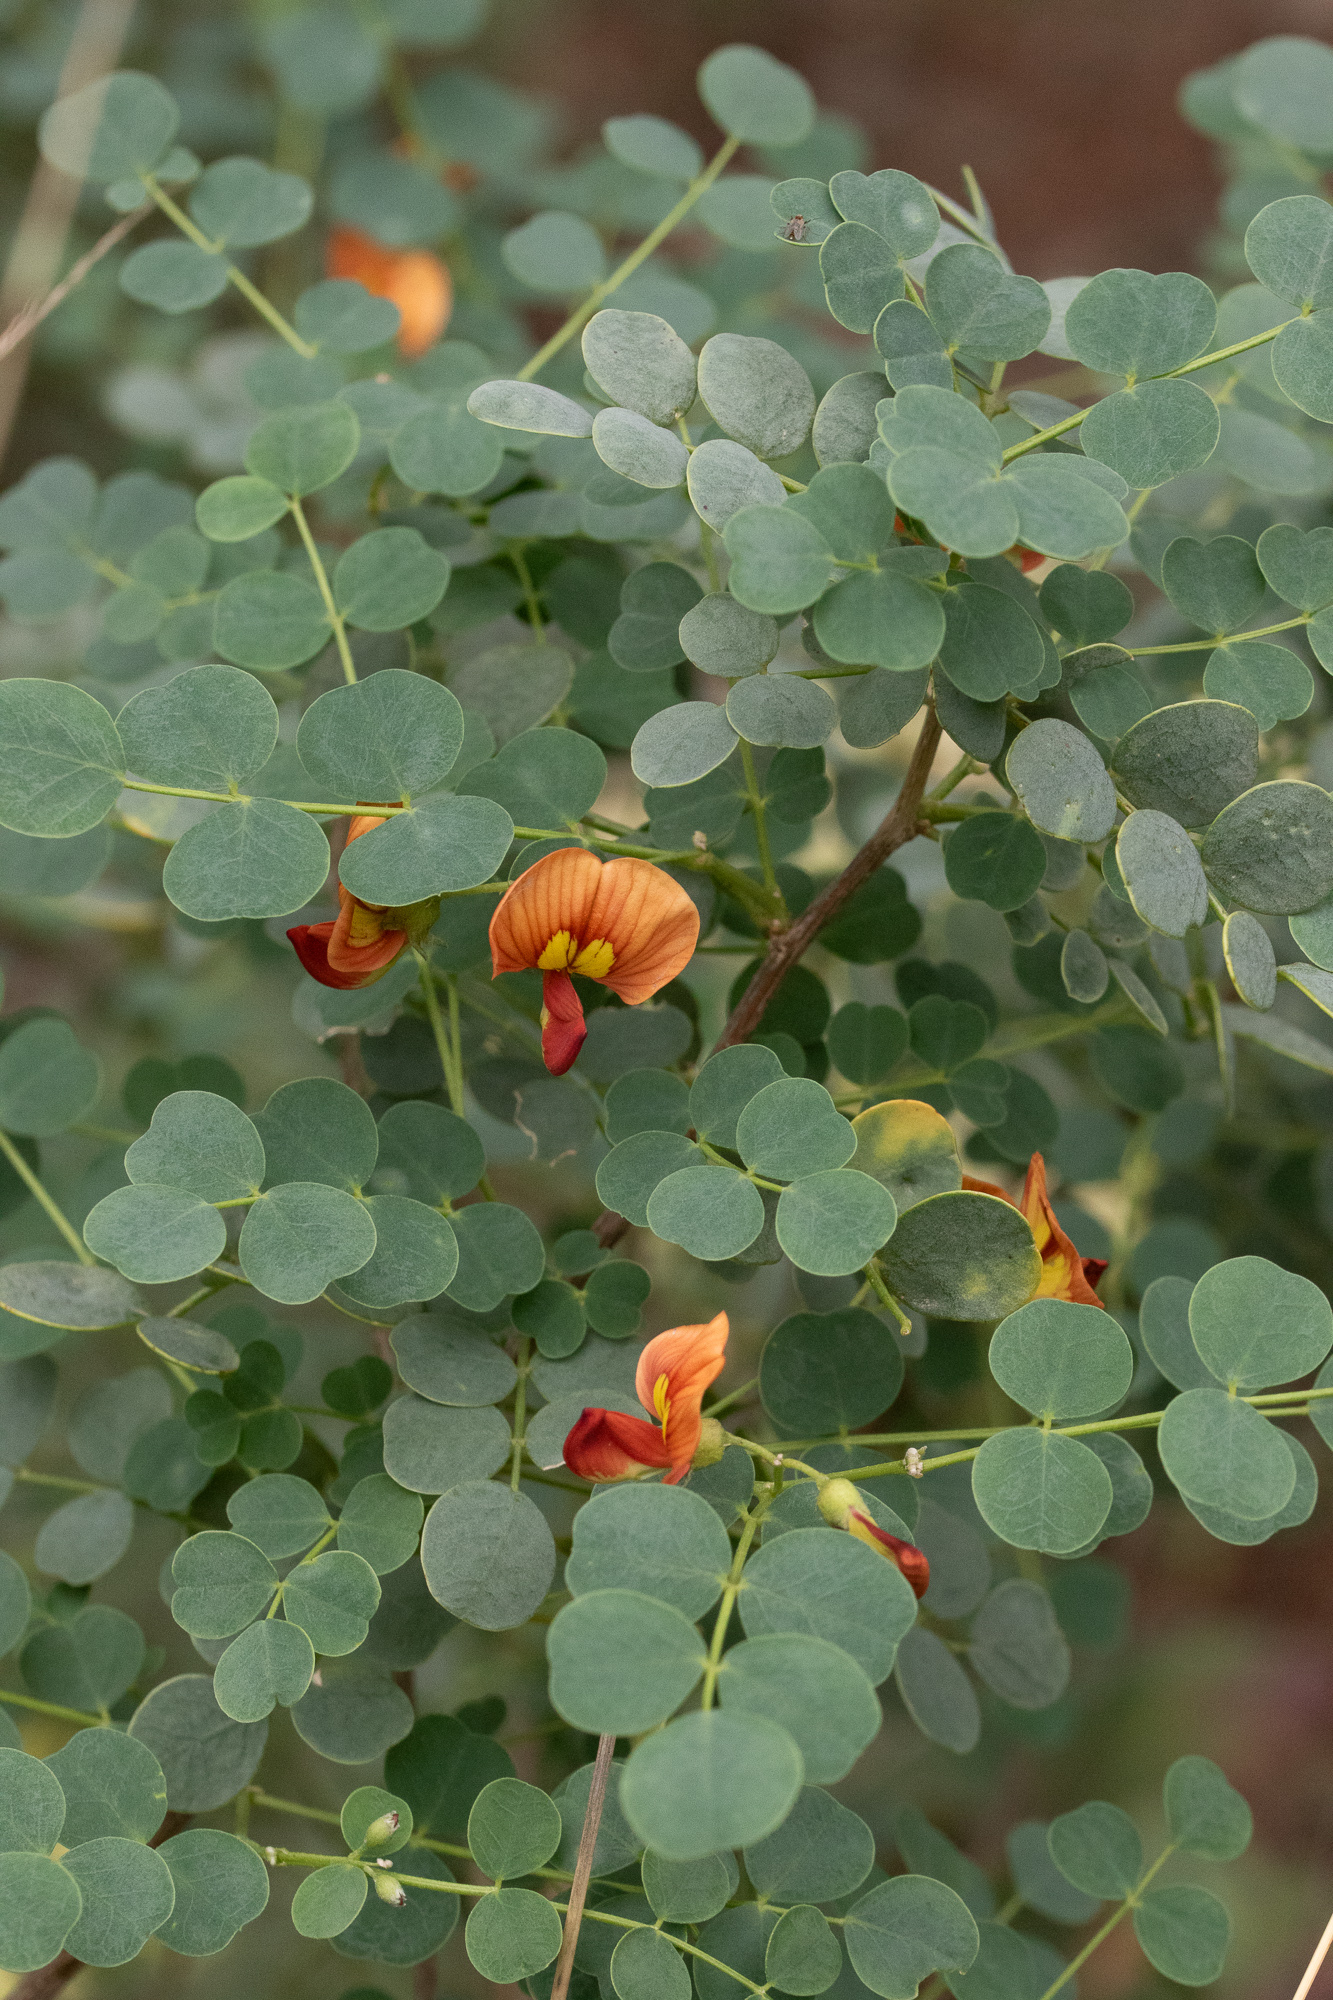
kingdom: Plantae
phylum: Tracheophyta
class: Magnoliopsida
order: Fabales
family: Fabaceae
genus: Colutea
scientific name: Colutea orientalis
